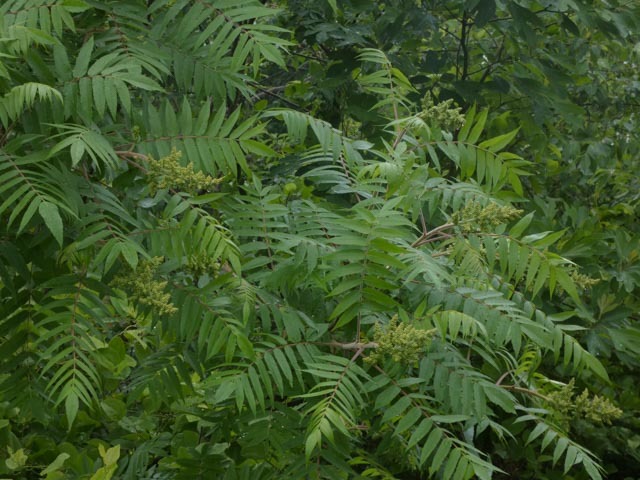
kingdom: Plantae
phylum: Tracheophyta
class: Magnoliopsida
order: Sapindales
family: Anacardiaceae
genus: Rhus
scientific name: Rhus typhina
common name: Staghorn sumac
